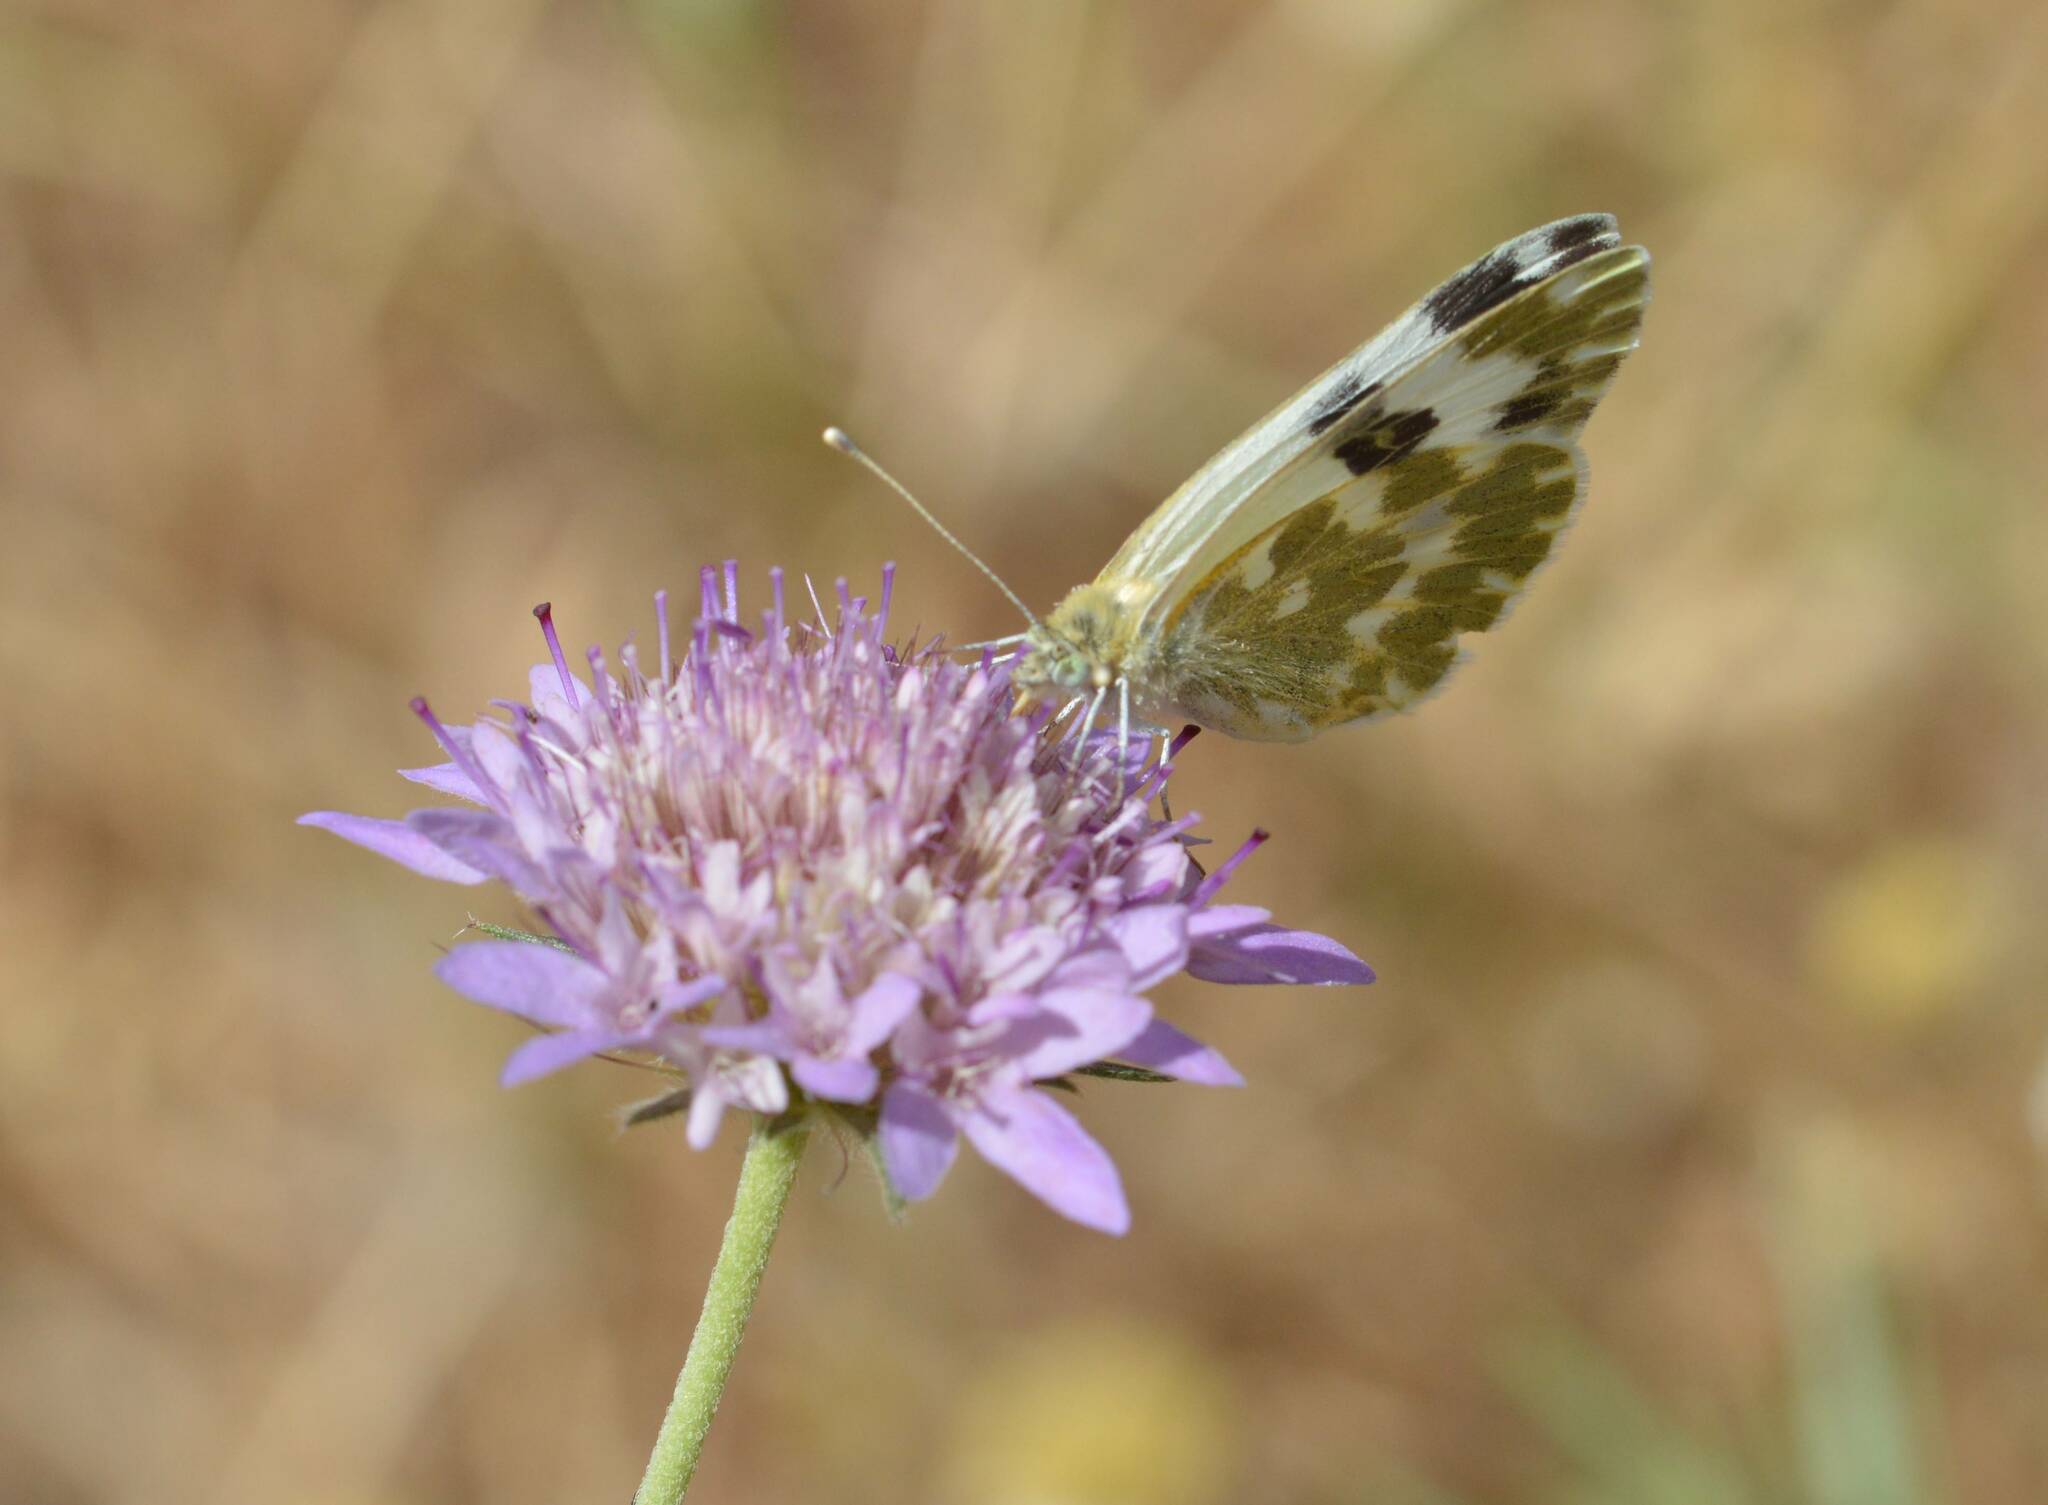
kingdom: Animalia
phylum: Arthropoda
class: Insecta
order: Lepidoptera
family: Pieridae
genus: Pontia
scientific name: Pontia daplidice
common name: Bath white
